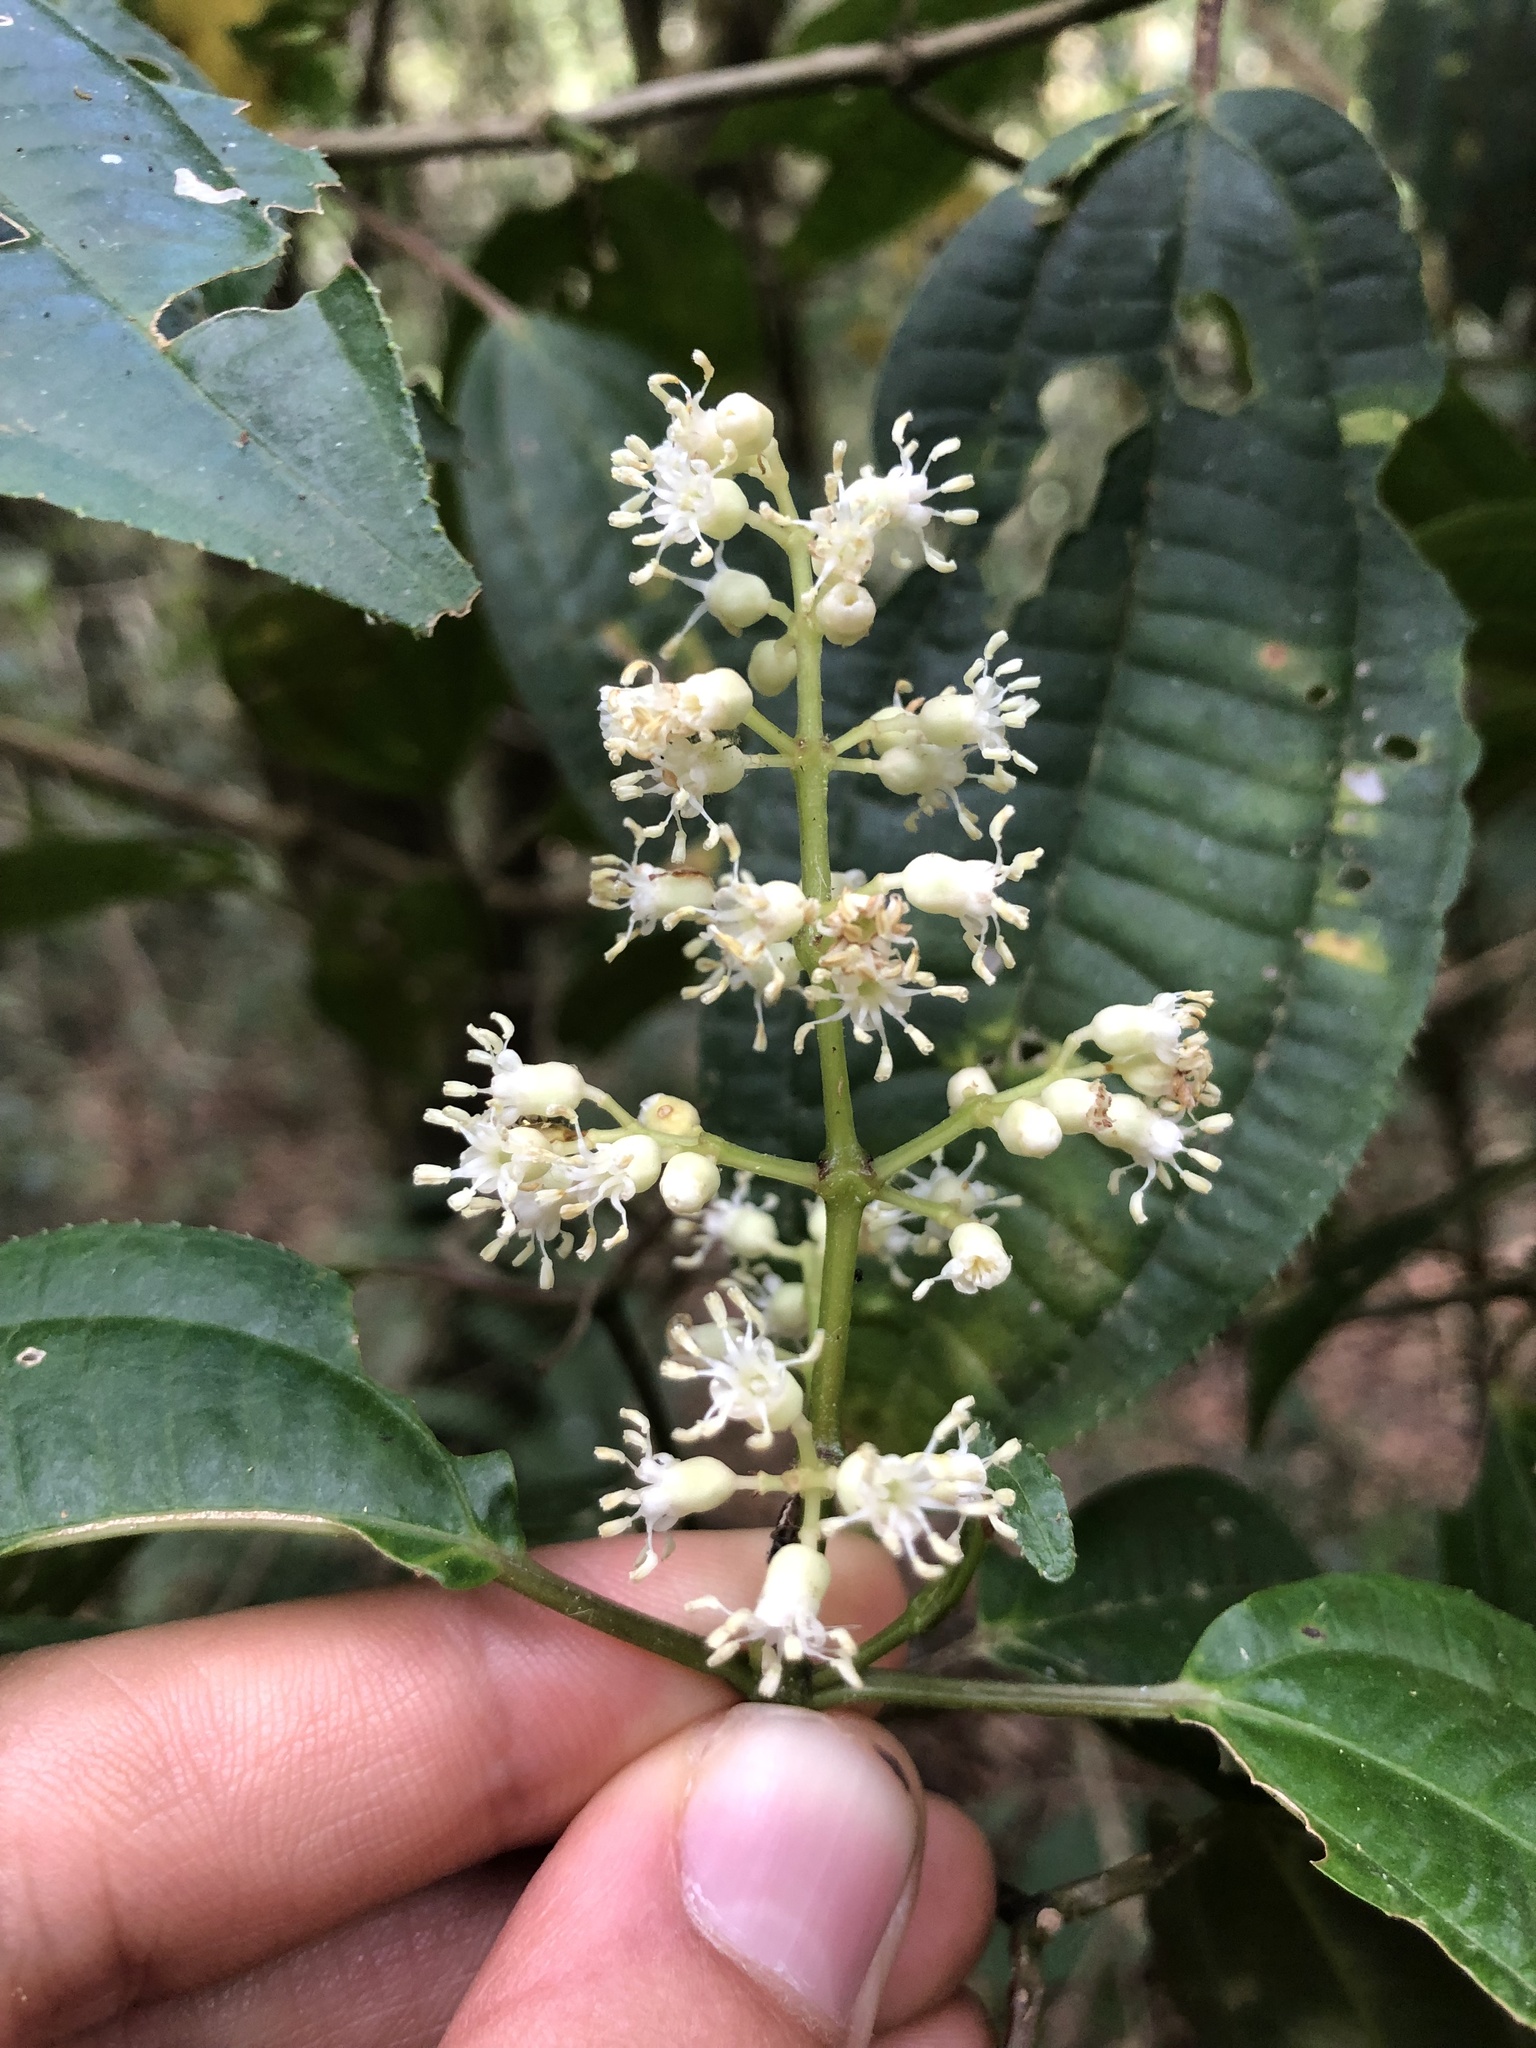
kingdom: Plantae
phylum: Tracheophyta
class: Magnoliopsida
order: Myrtales
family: Melastomataceae
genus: Miconia
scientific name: Miconia glaberrima
